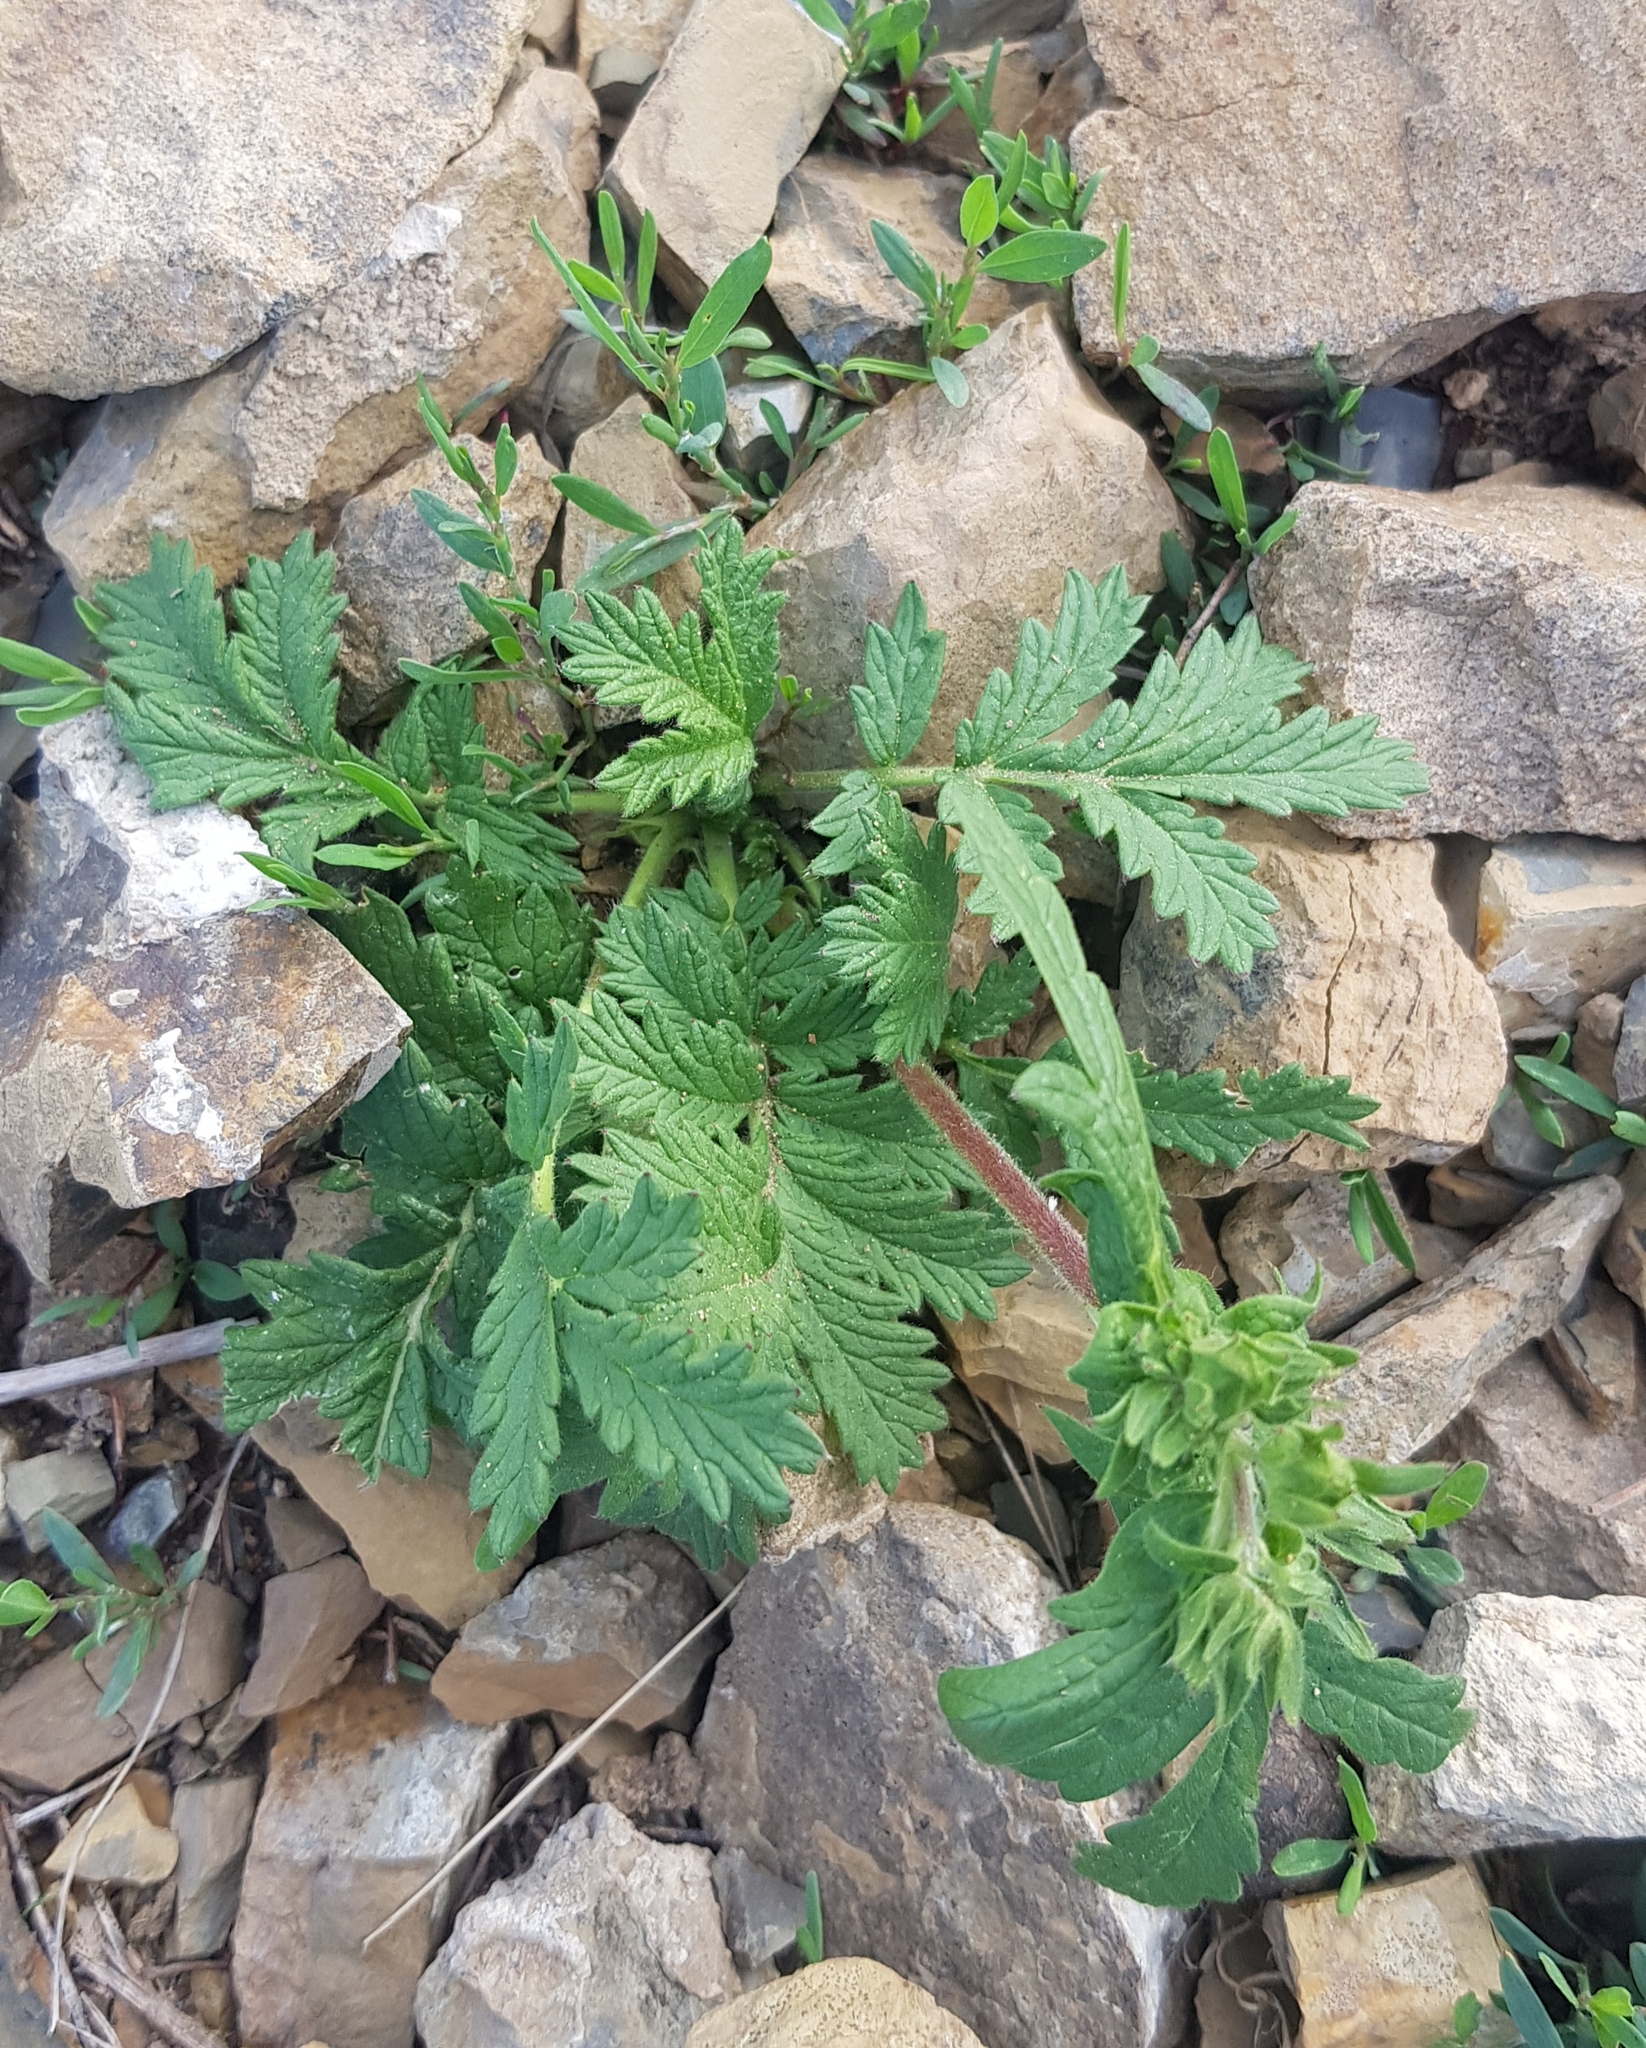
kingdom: Plantae
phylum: Tracheophyta
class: Magnoliopsida
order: Rosales
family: Rosaceae
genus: Potentilla
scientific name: Potentilla longifolia
